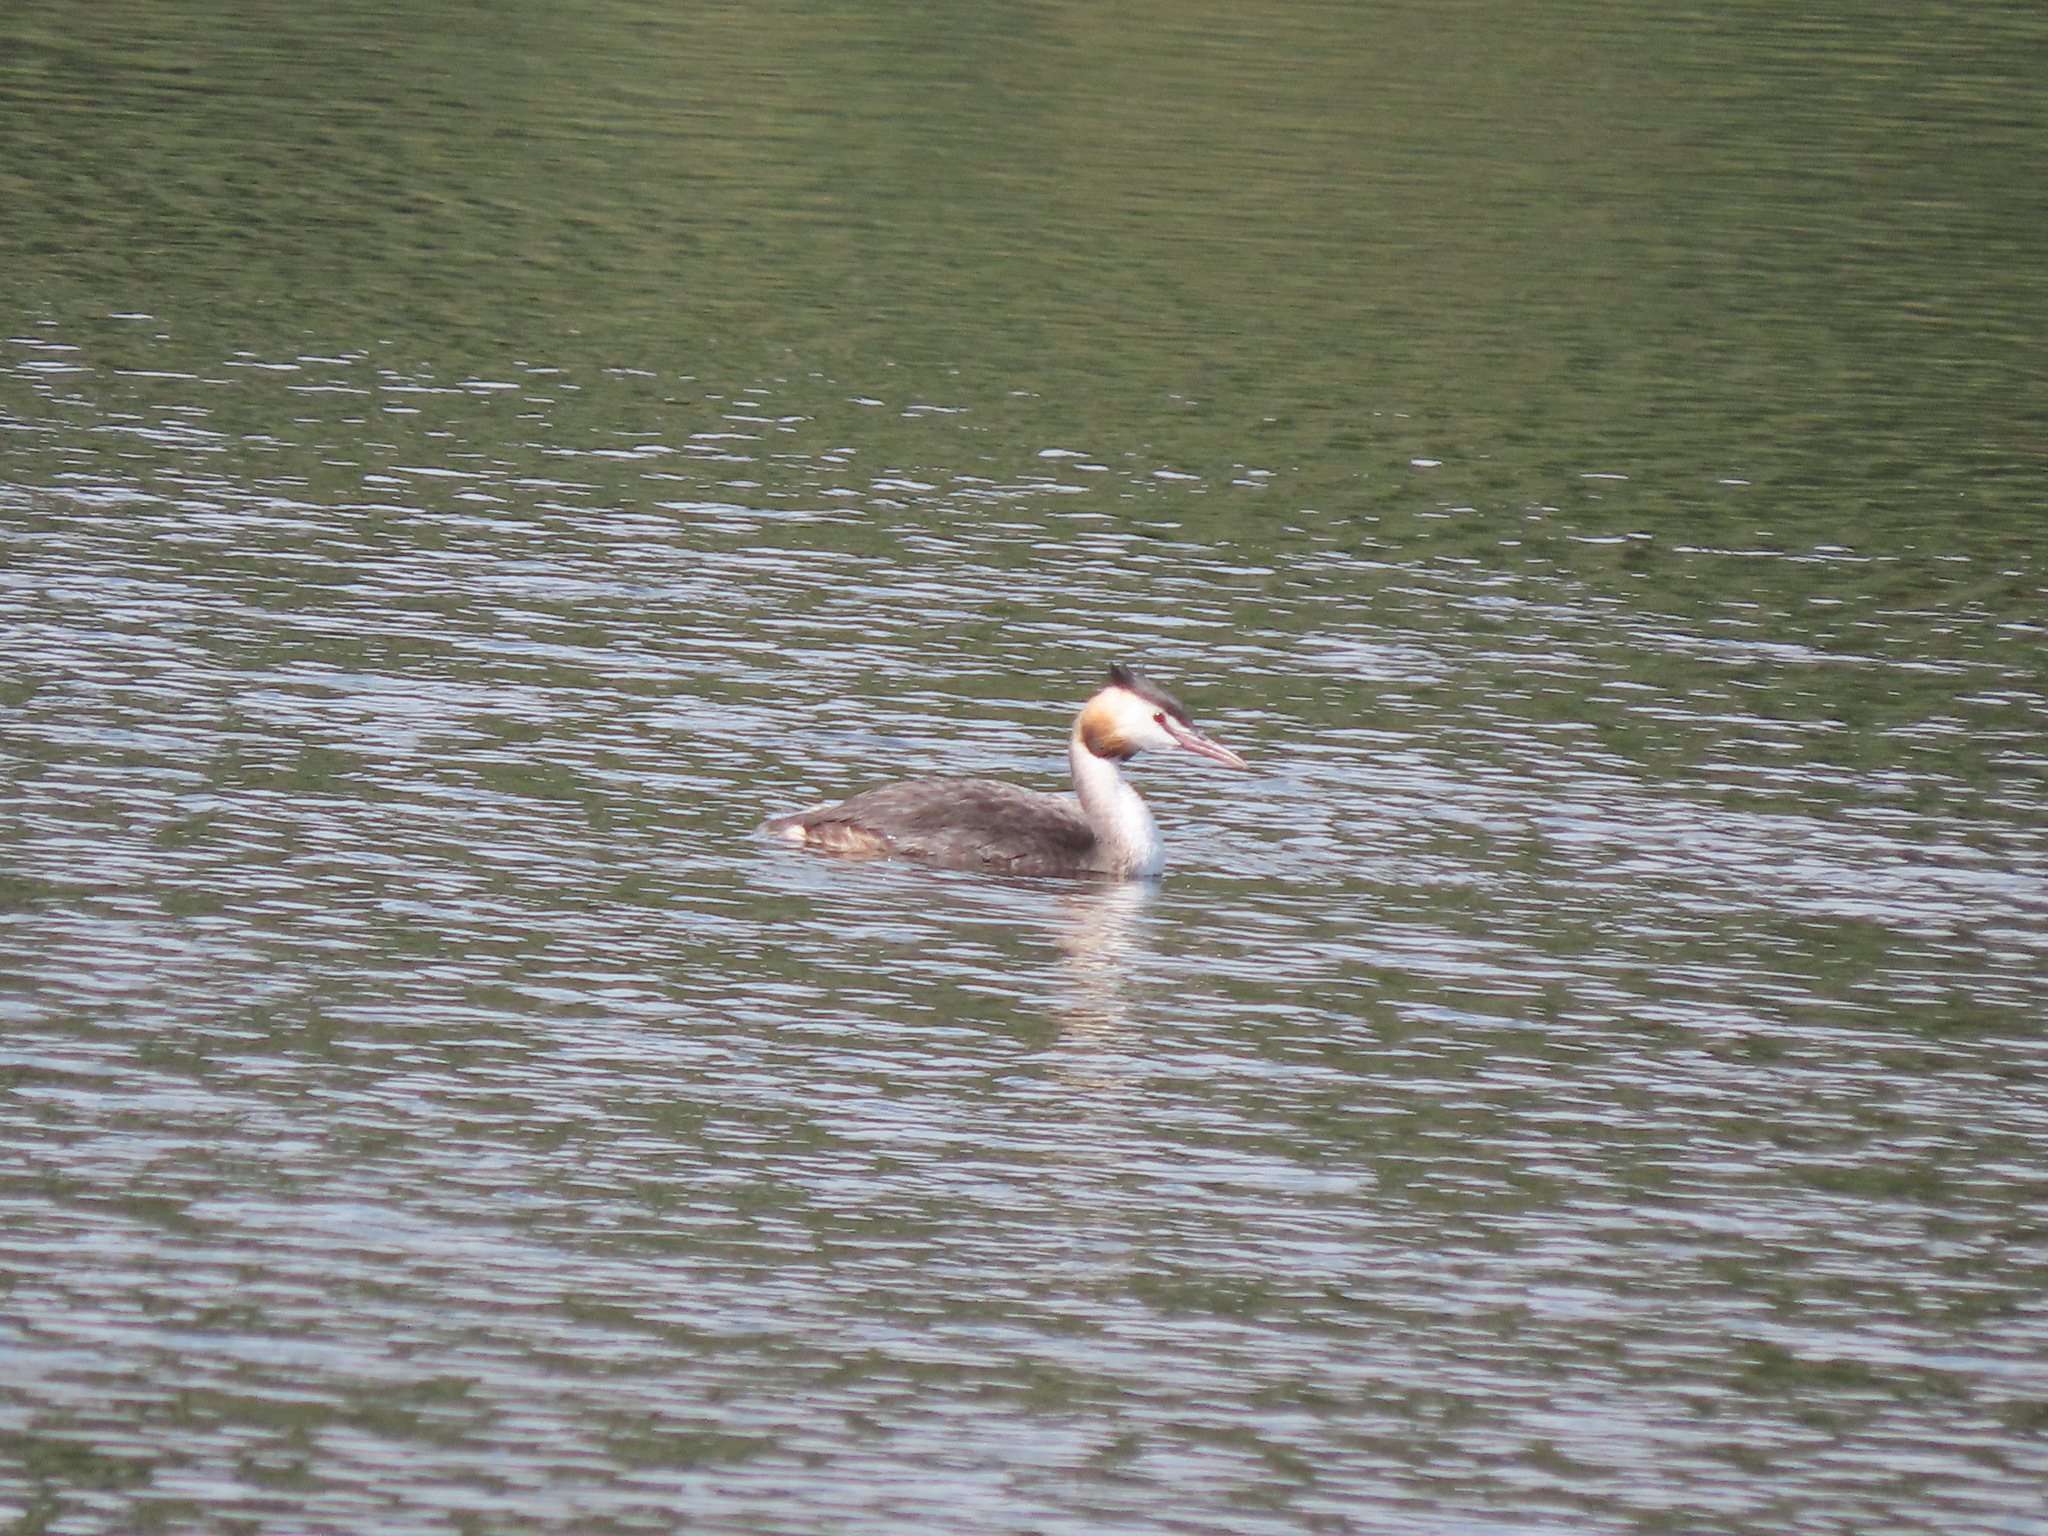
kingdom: Animalia
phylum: Chordata
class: Aves
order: Podicipediformes
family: Podicipedidae
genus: Podiceps
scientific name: Podiceps cristatus
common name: Great crested grebe
